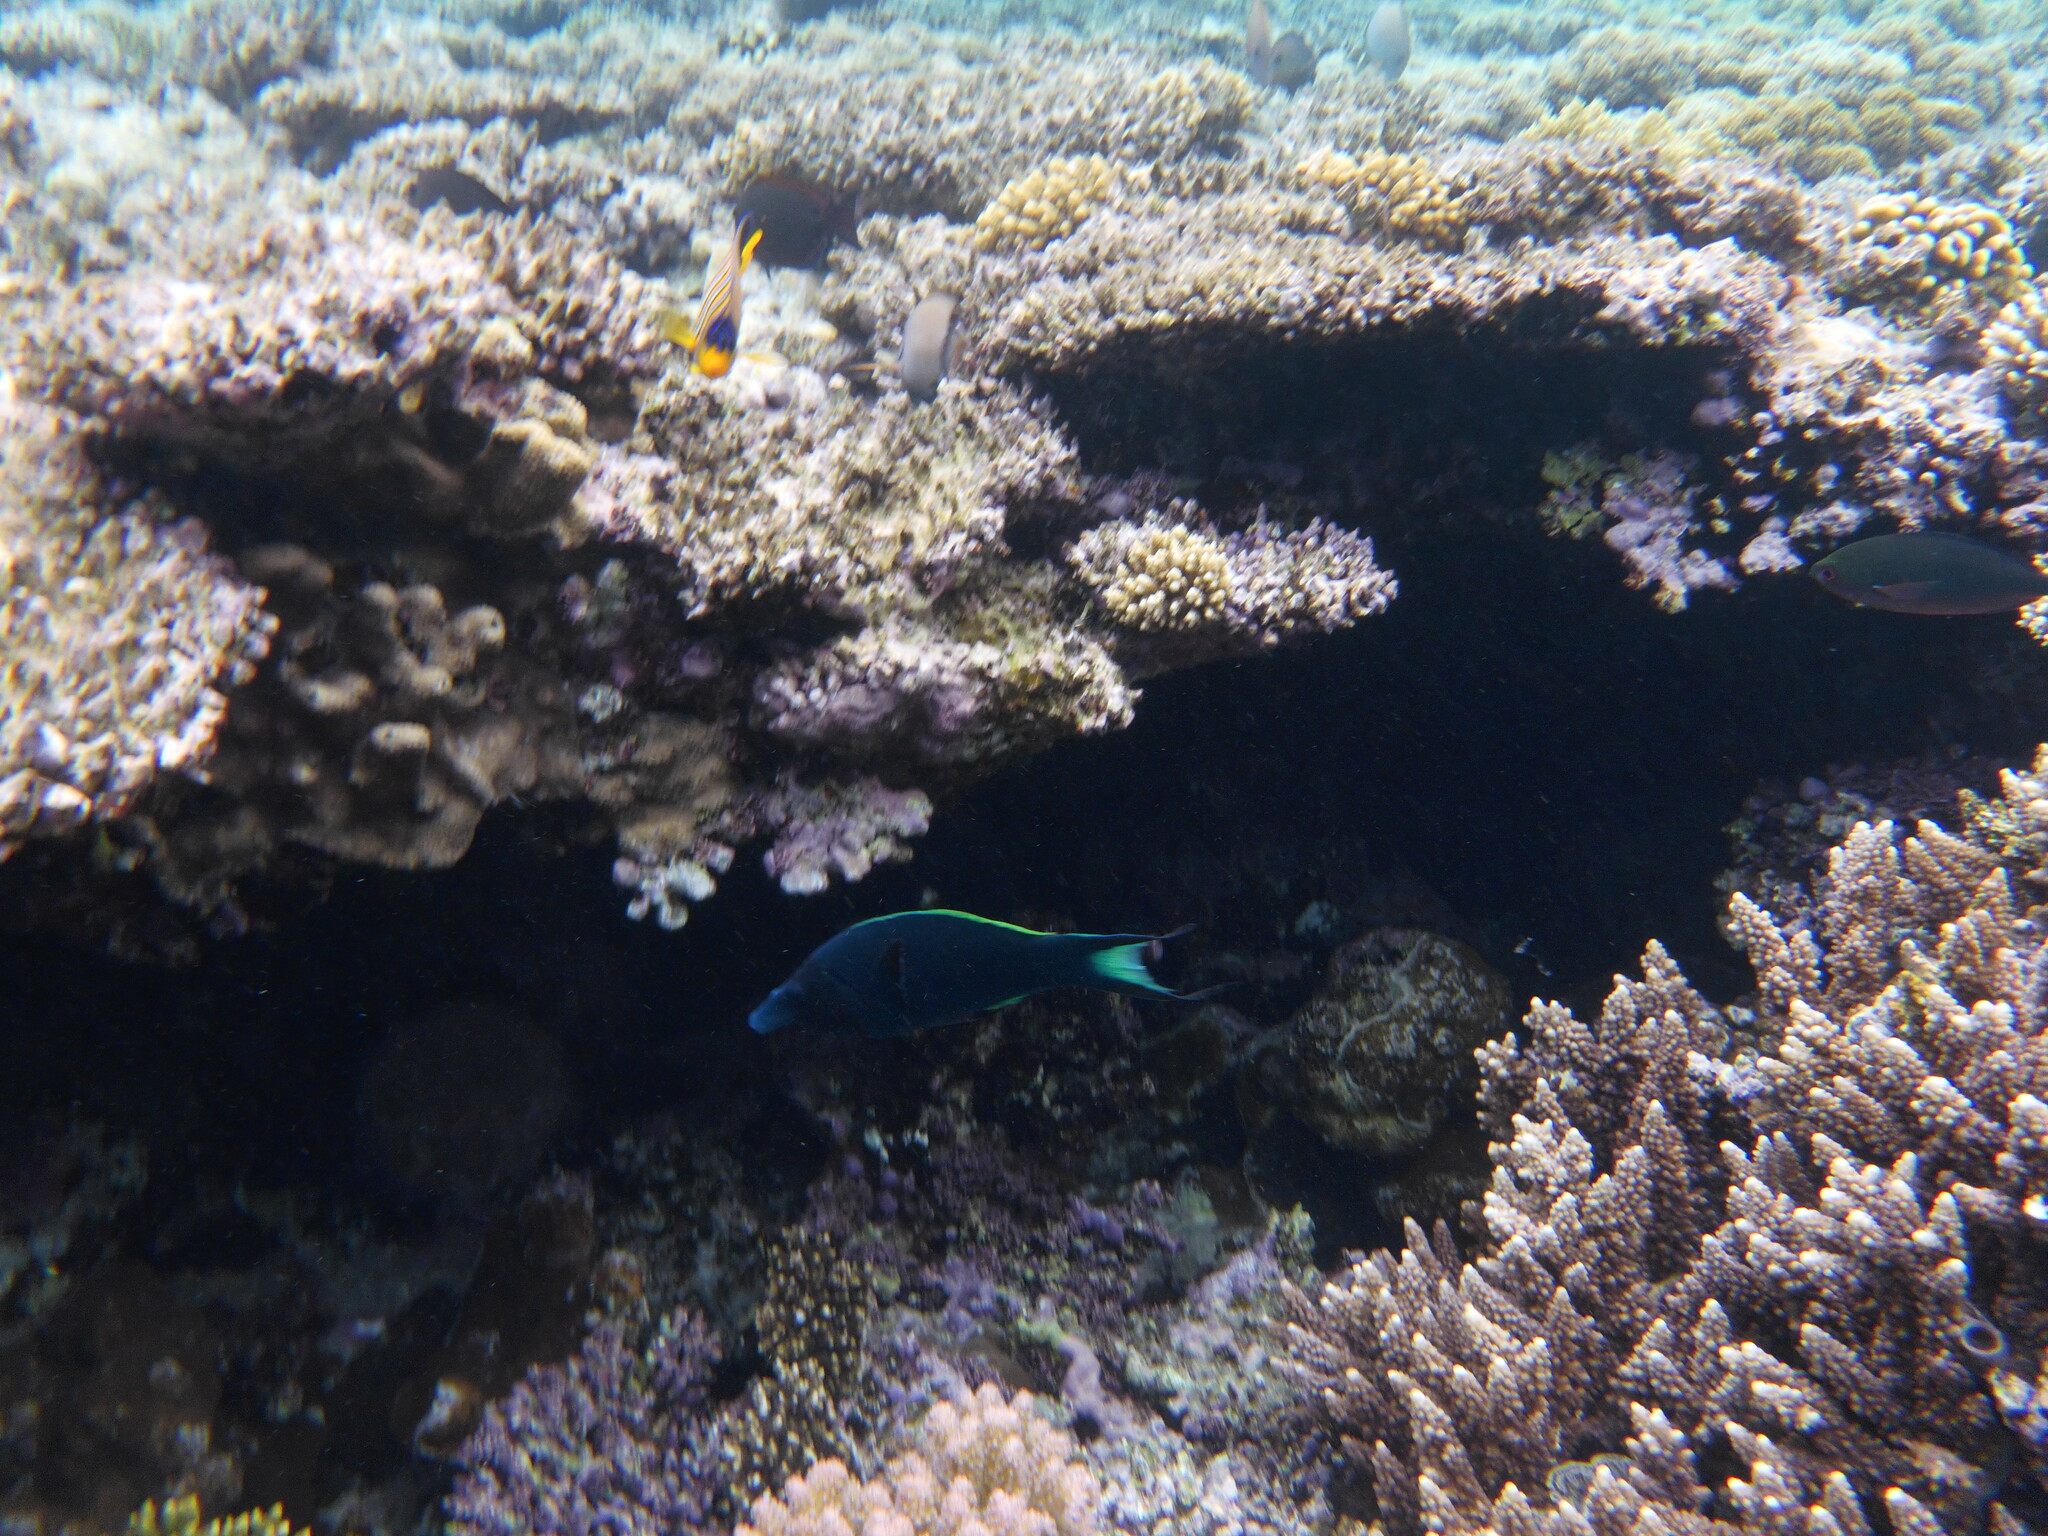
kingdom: Animalia
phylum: Chordata
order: Perciformes
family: Labridae
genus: Gomphosus
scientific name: Gomphosus klunzingeri
